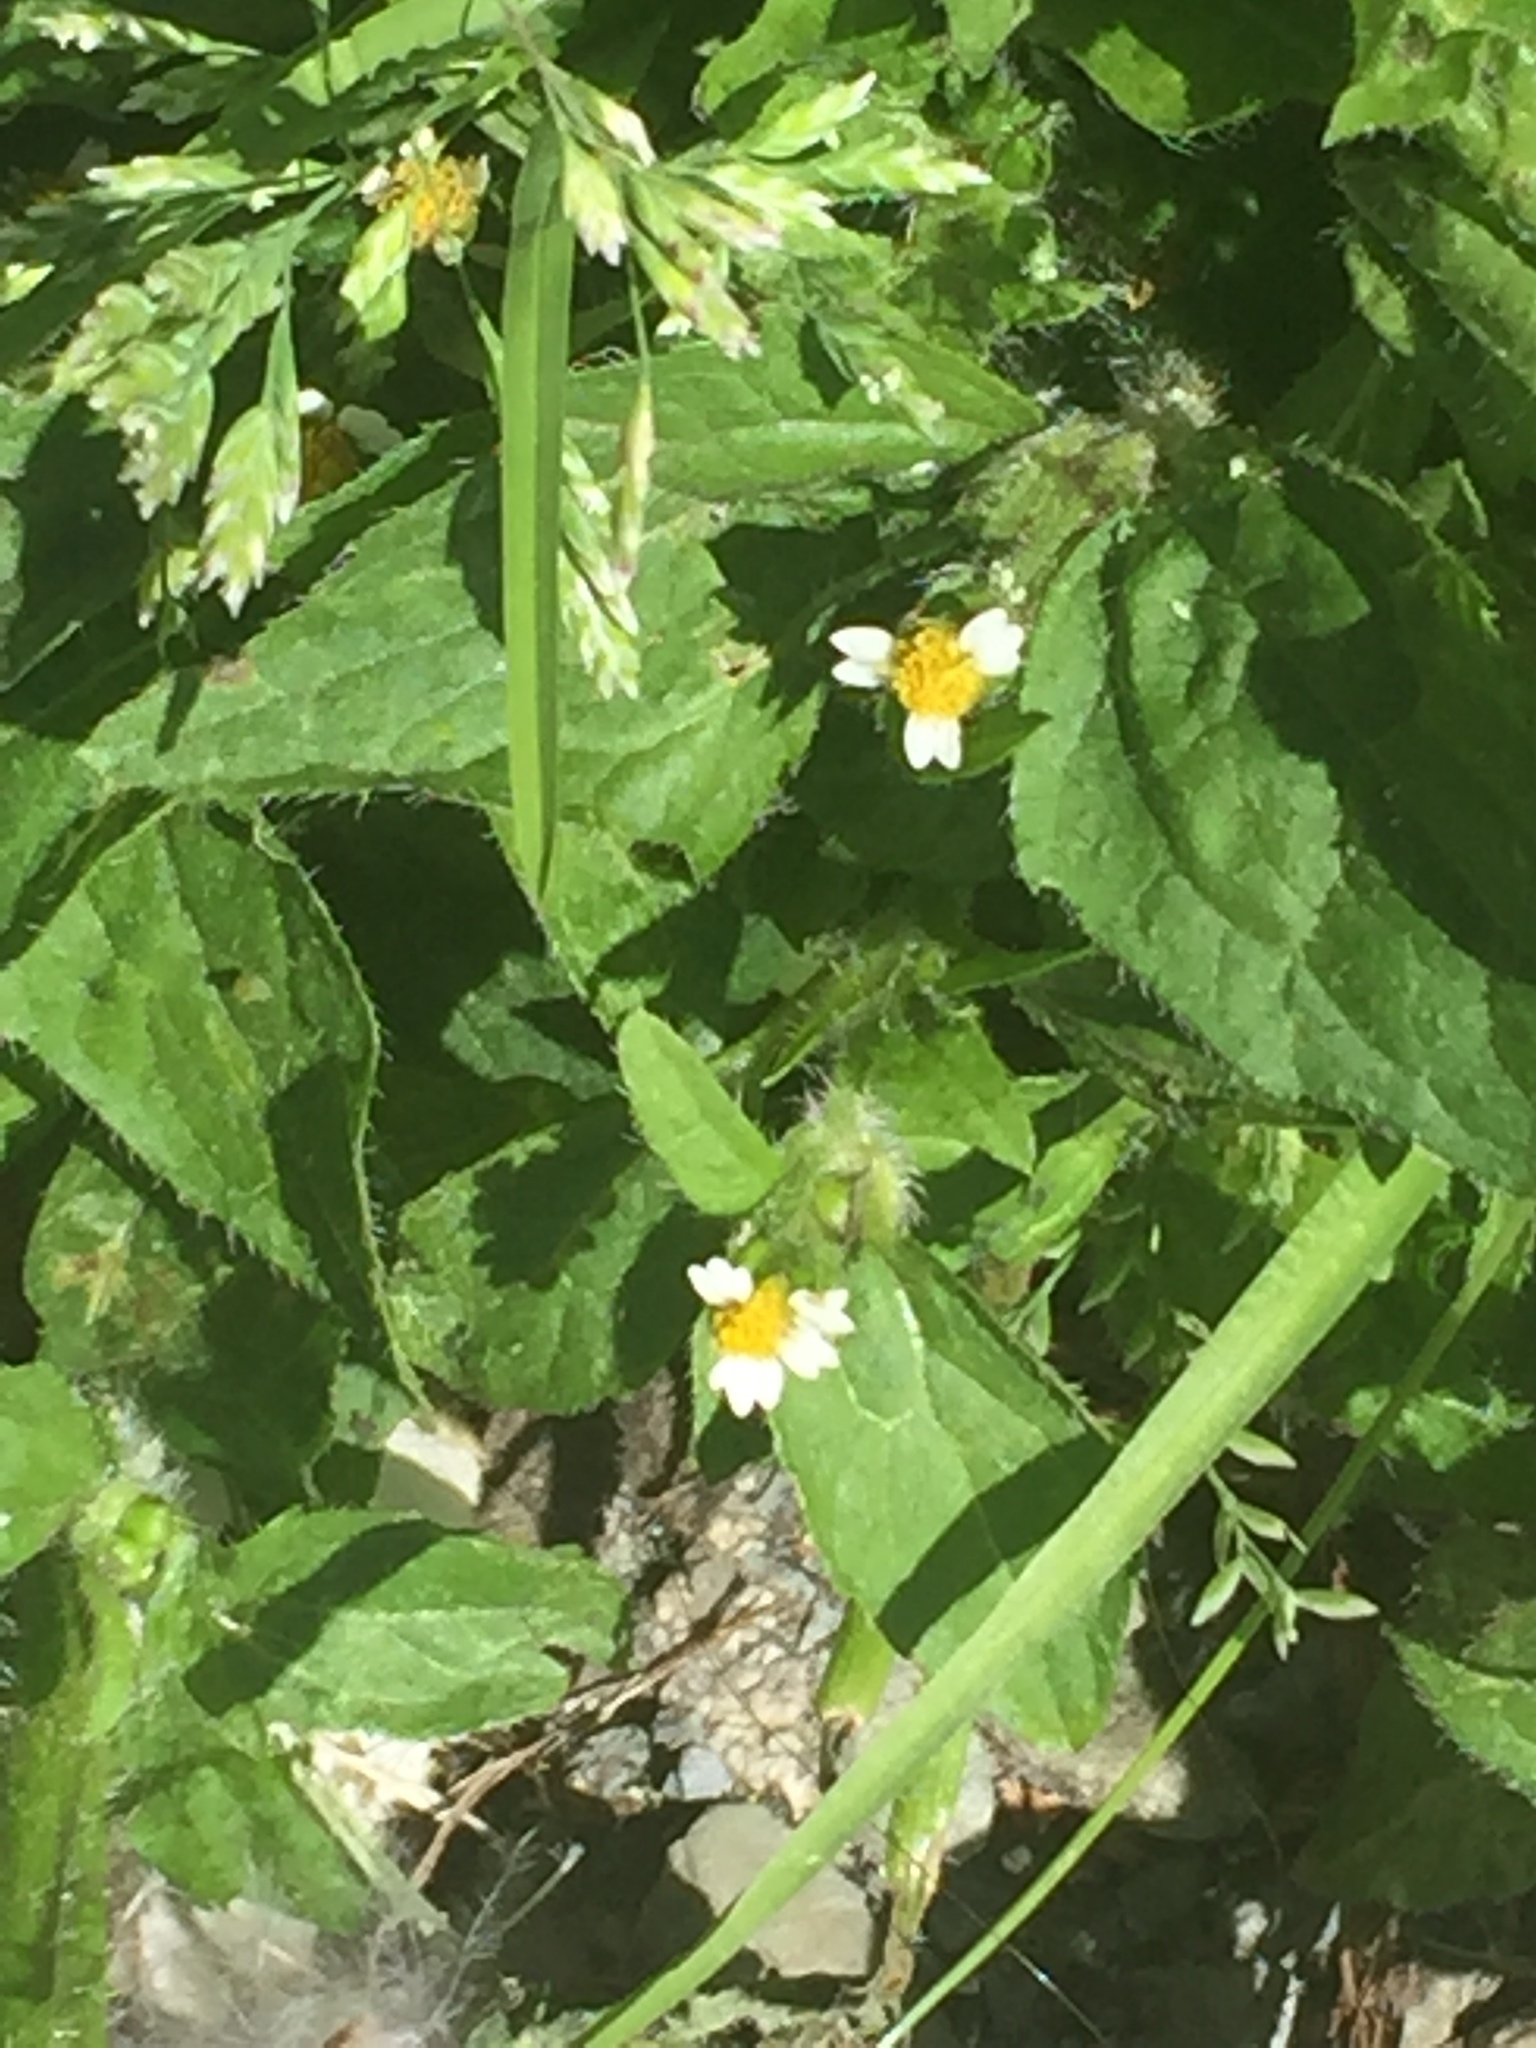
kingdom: Plantae
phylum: Tracheophyta
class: Magnoliopsida
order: Asterales
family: Asteraceae
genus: Galinsoga
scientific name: Galinsoga quadriradiata
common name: Shaggy soldier
